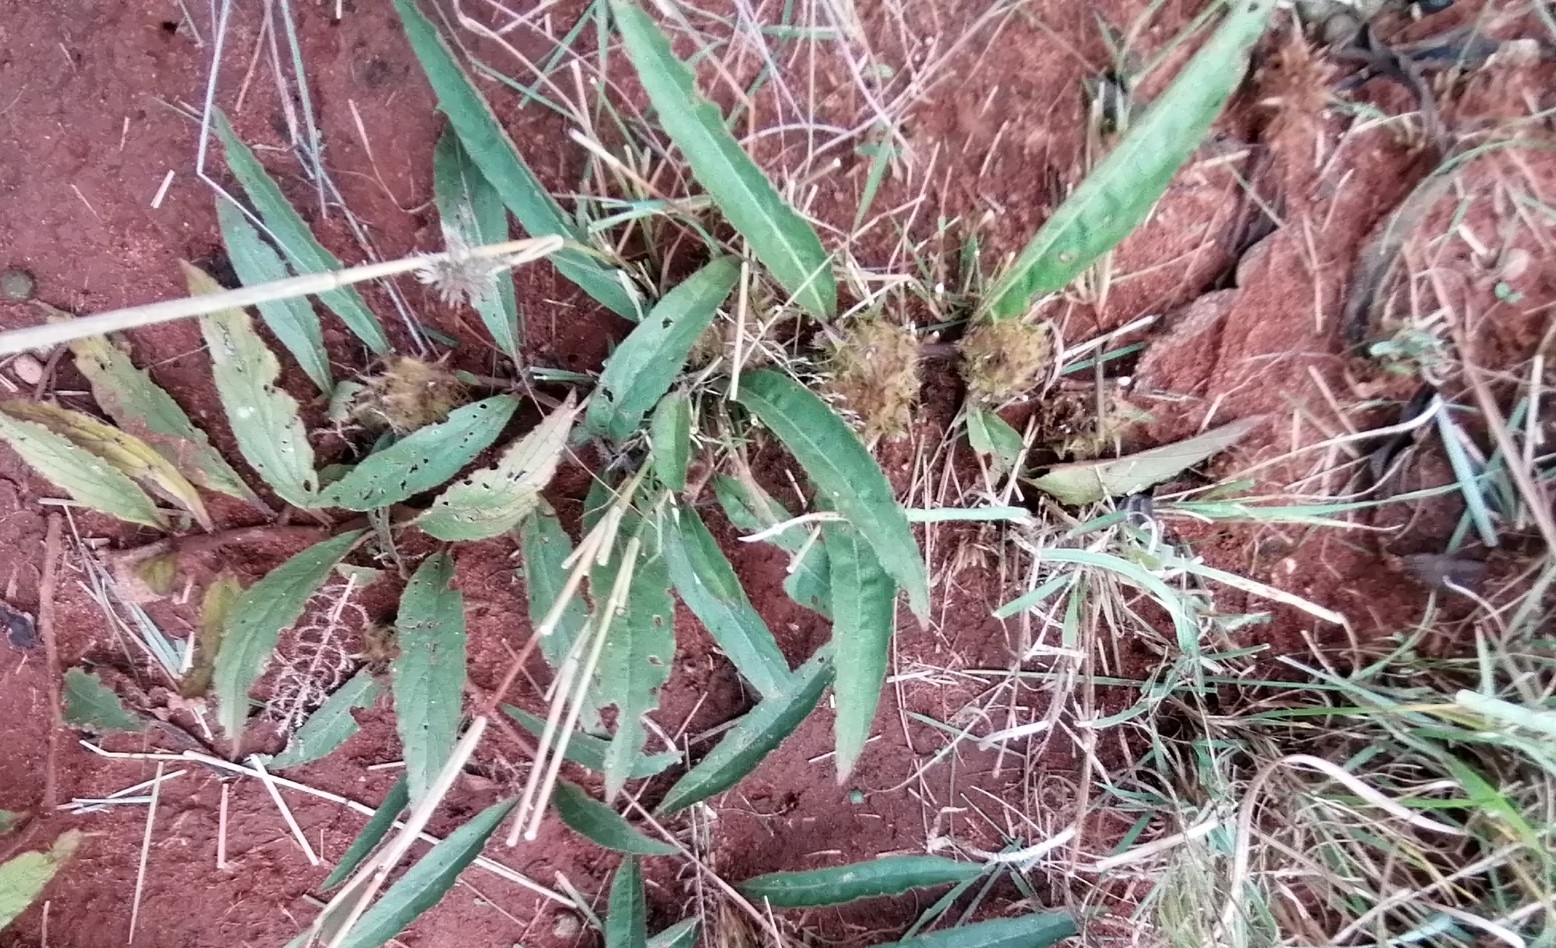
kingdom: Plantae
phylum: Tracheophyta
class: Magnoliopsida
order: Lamiales
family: Acanthaceae
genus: Crabbea
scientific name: Crabbea cirsioides
